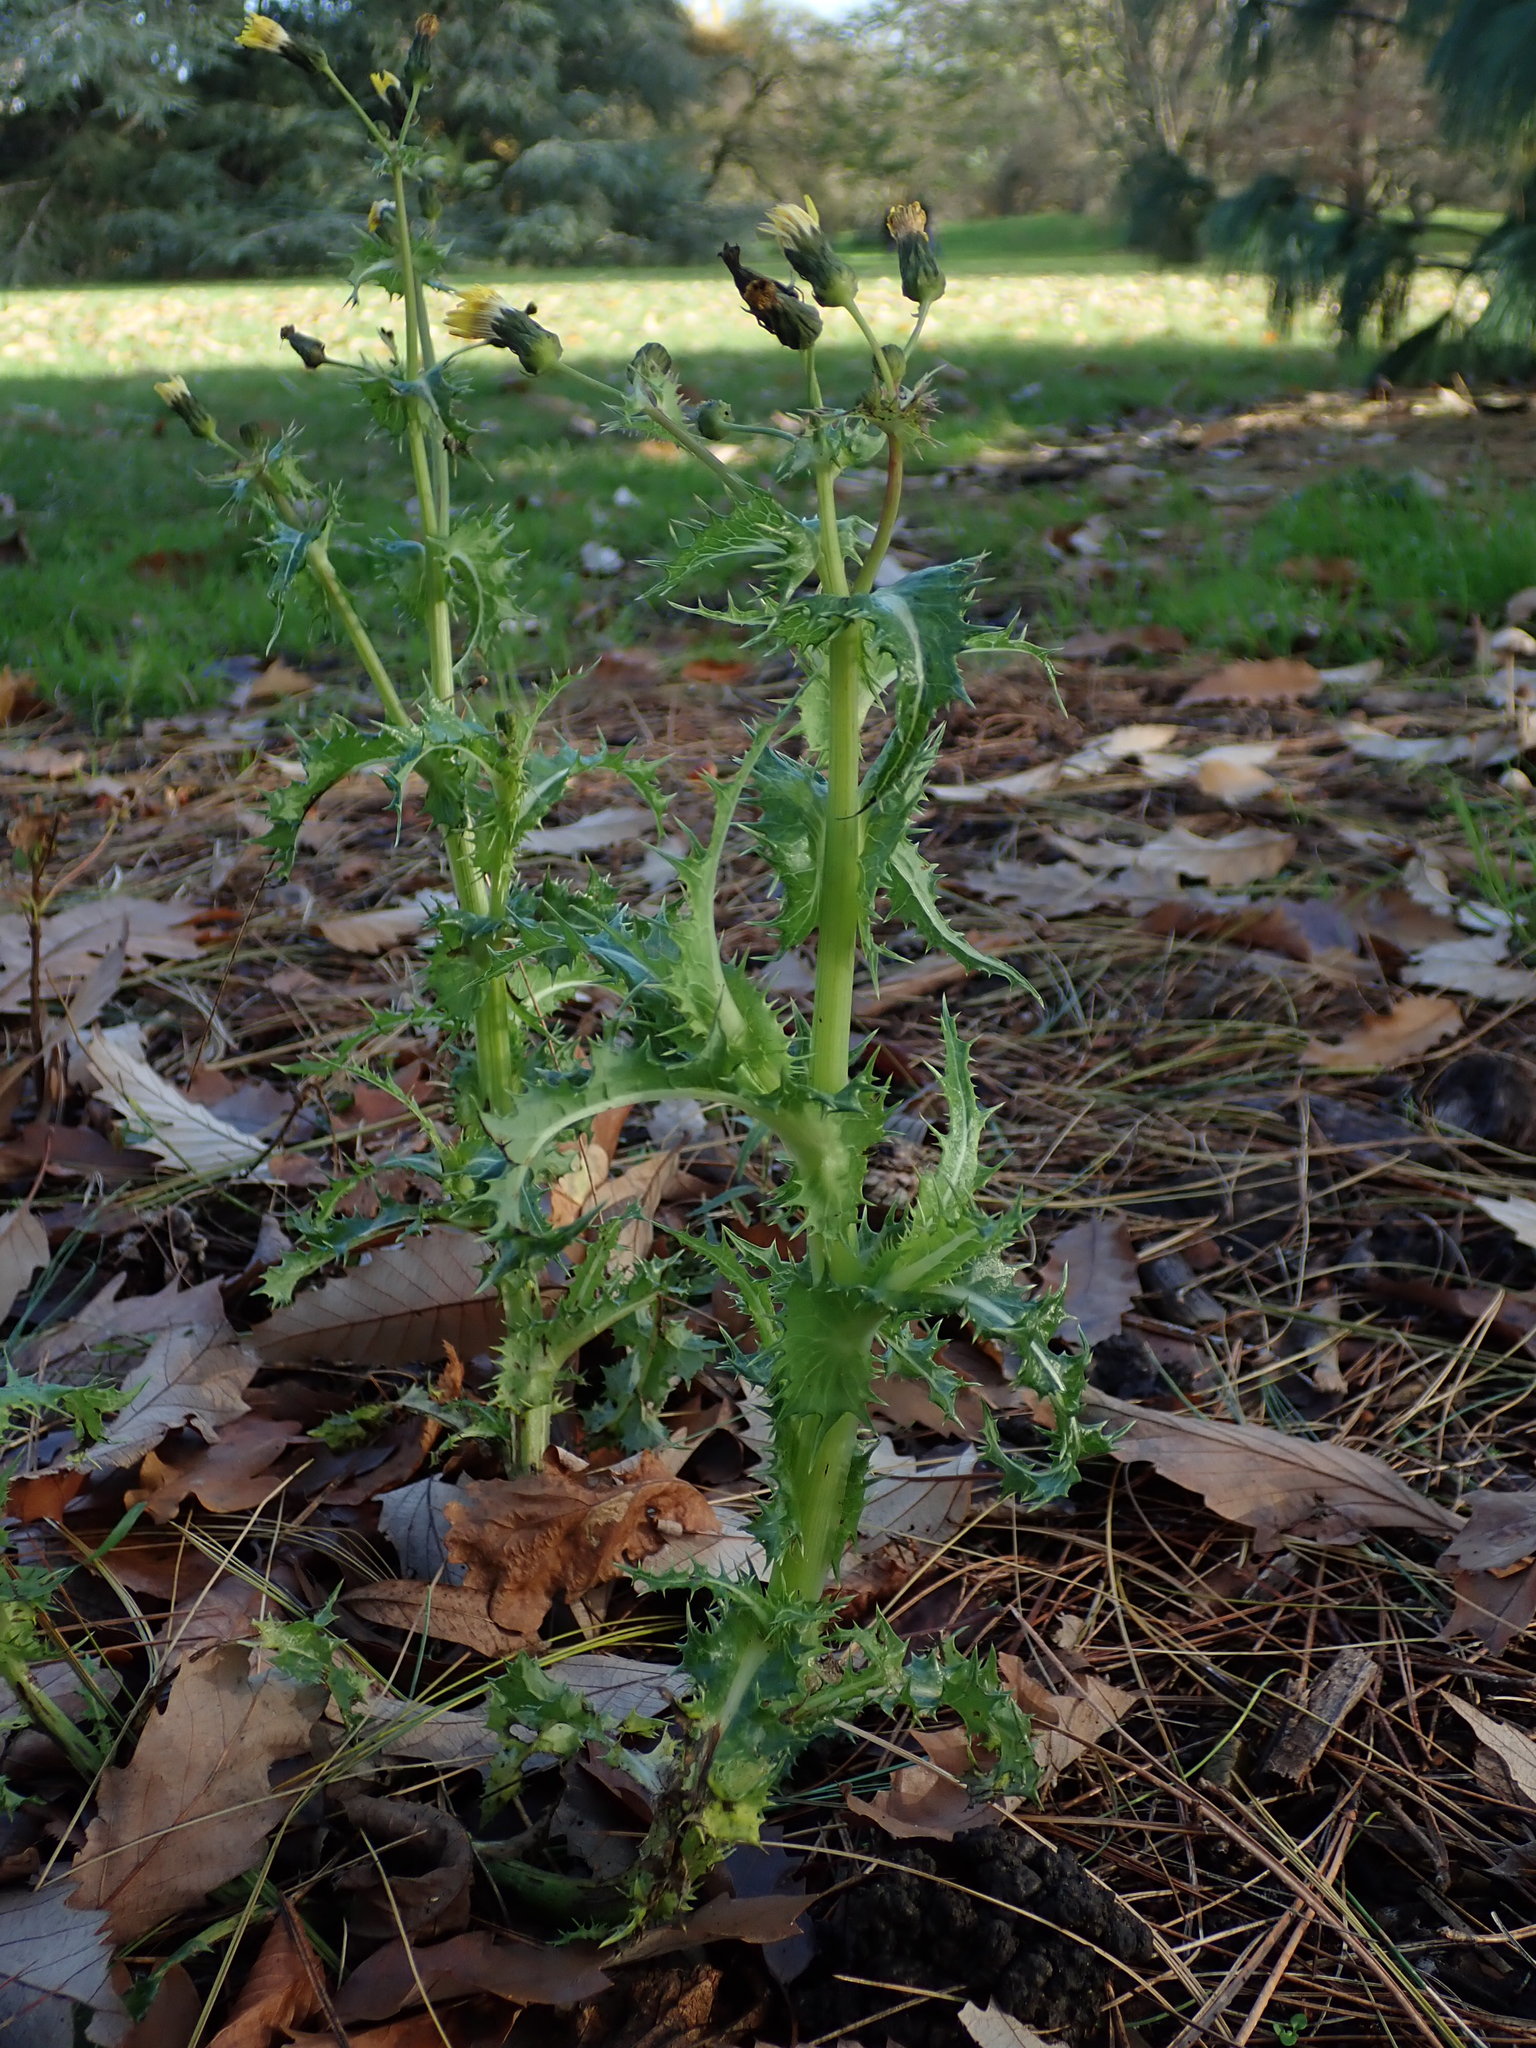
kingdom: Plantae
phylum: Tracheophyta
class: Magnoliopsida
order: Asterales
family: Asteraceae
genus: Sonchus
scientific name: Sonchus asper
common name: Prickly sow-thistle
